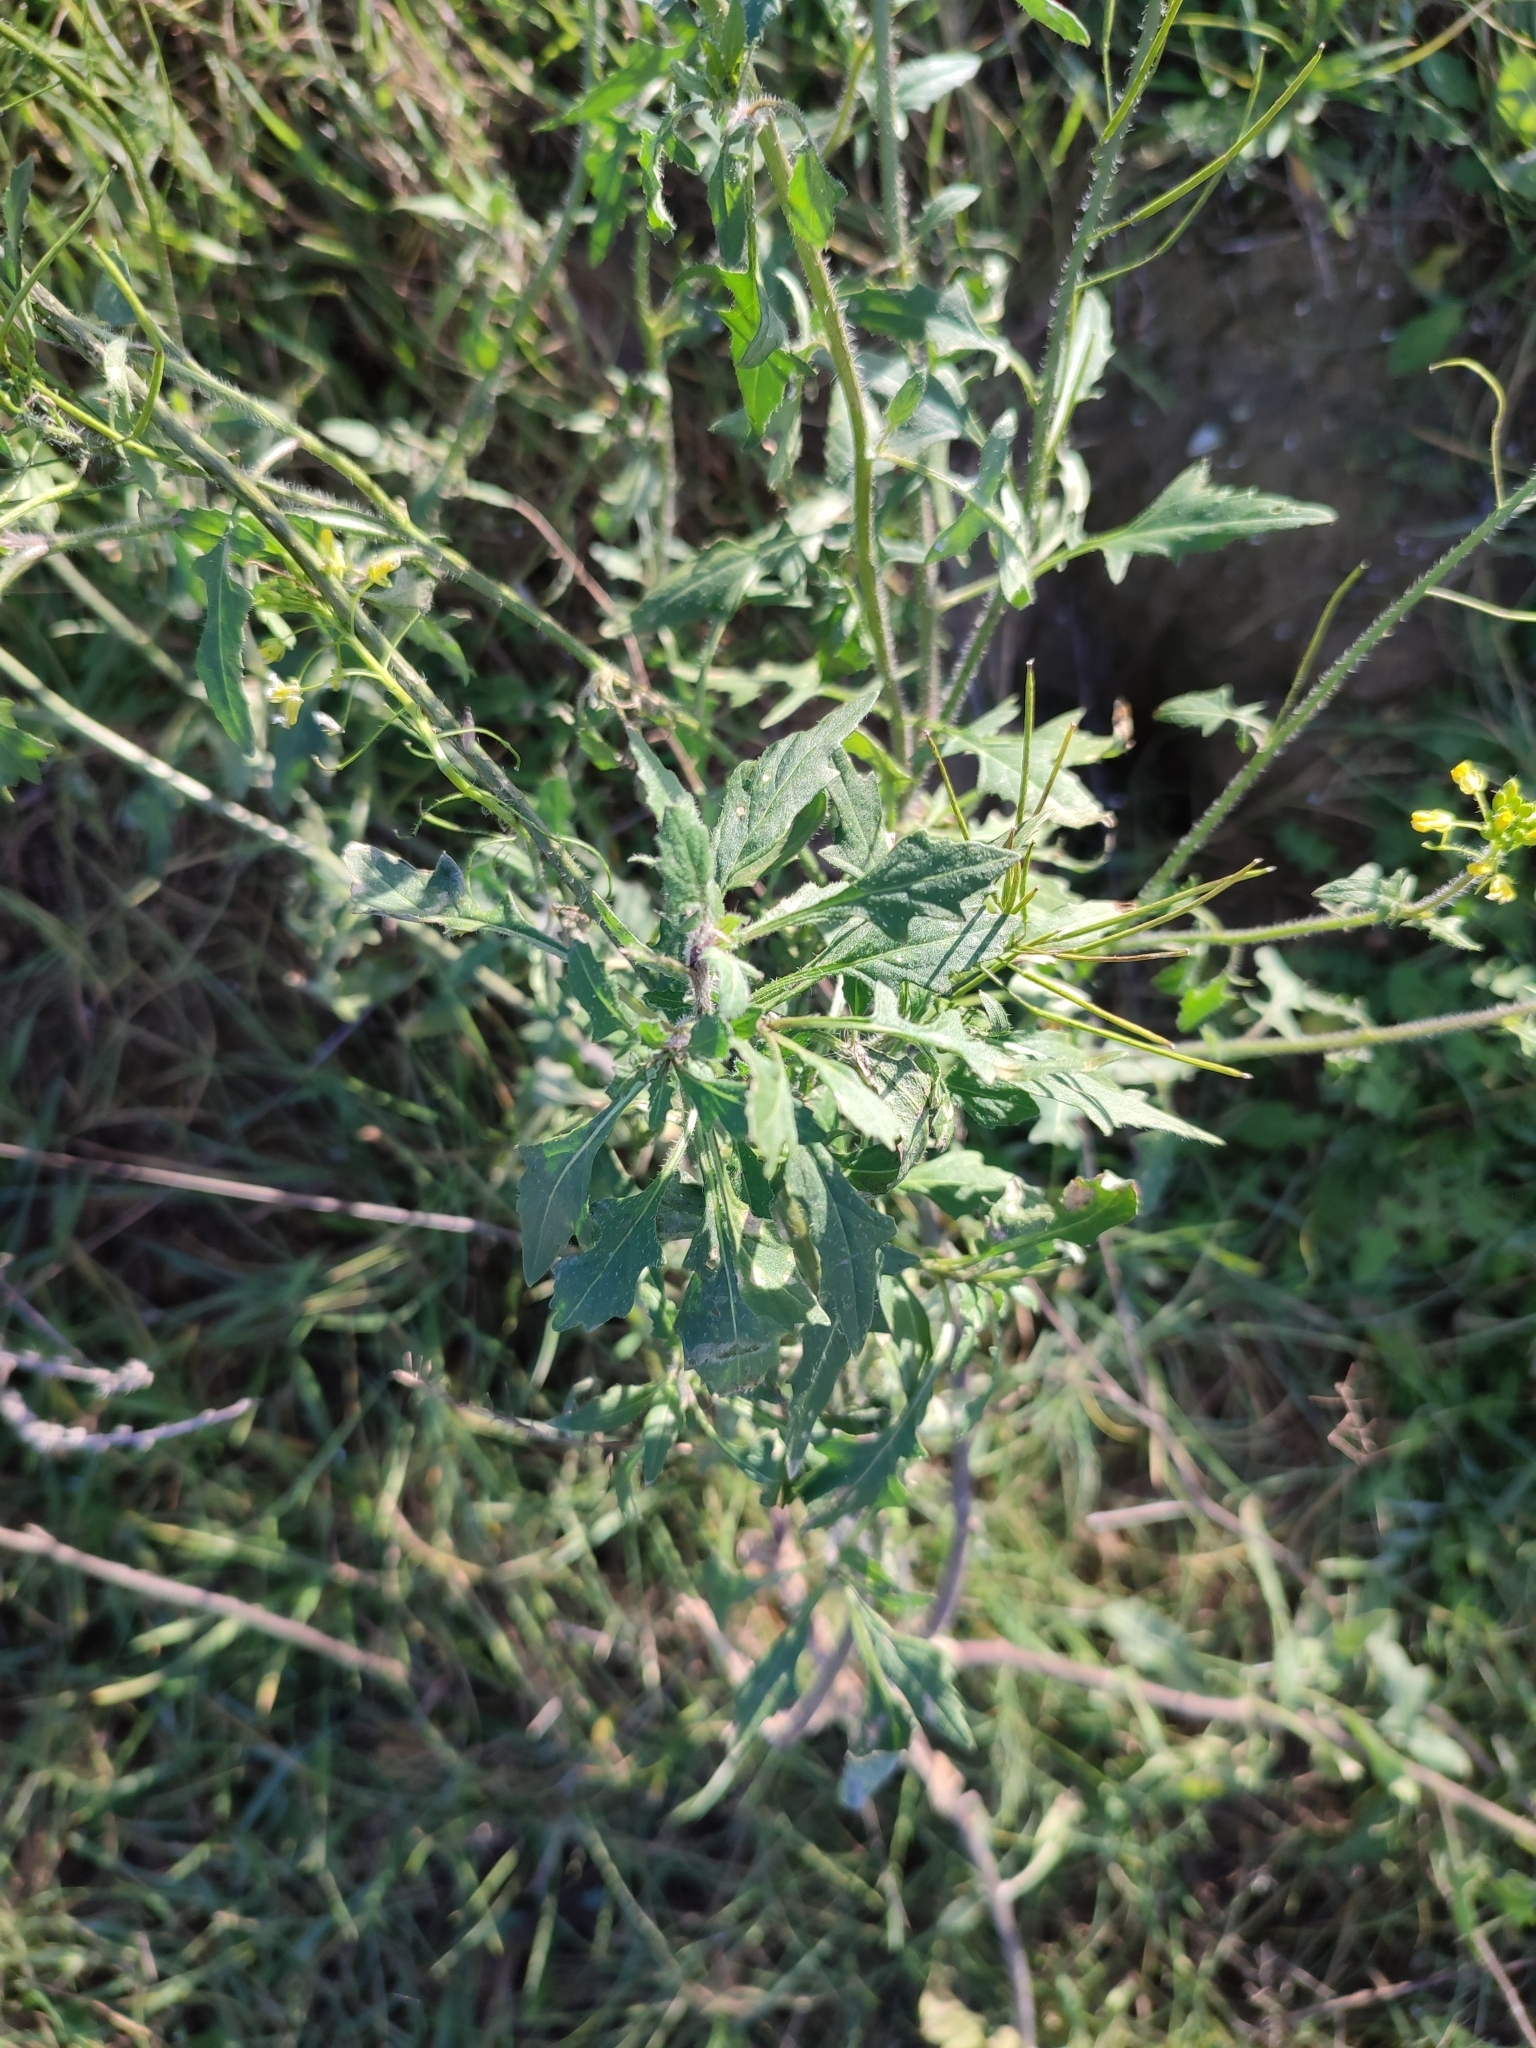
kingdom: Plantae
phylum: Tracheophyta
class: Magnoliopsida
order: Brassicales
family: Brassicaceae
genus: Sisymbrium
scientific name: Sisymbrium loeselii
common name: False london-rocket
